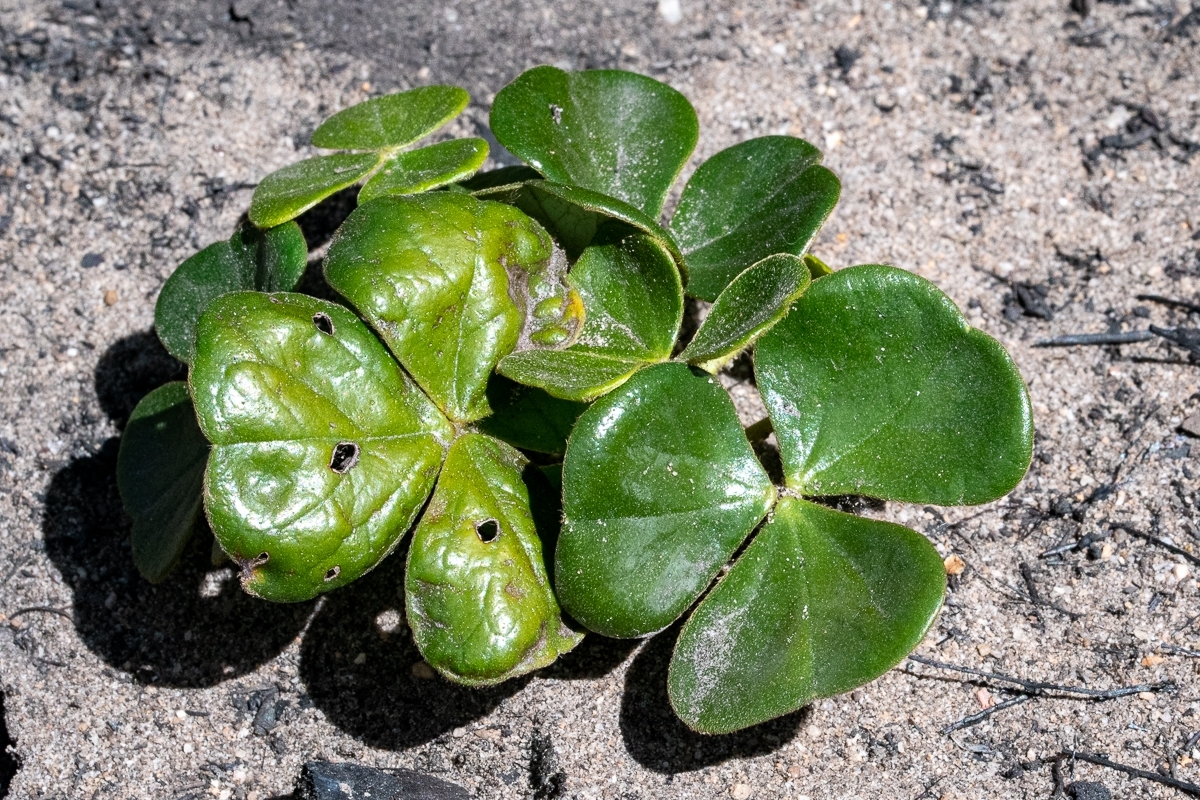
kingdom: Plantae
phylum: Tracheophyta
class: Magnoliopsida
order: Oxalidales
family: Oxalidaceae
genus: Oxalis
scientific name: Oxalis truncatula
